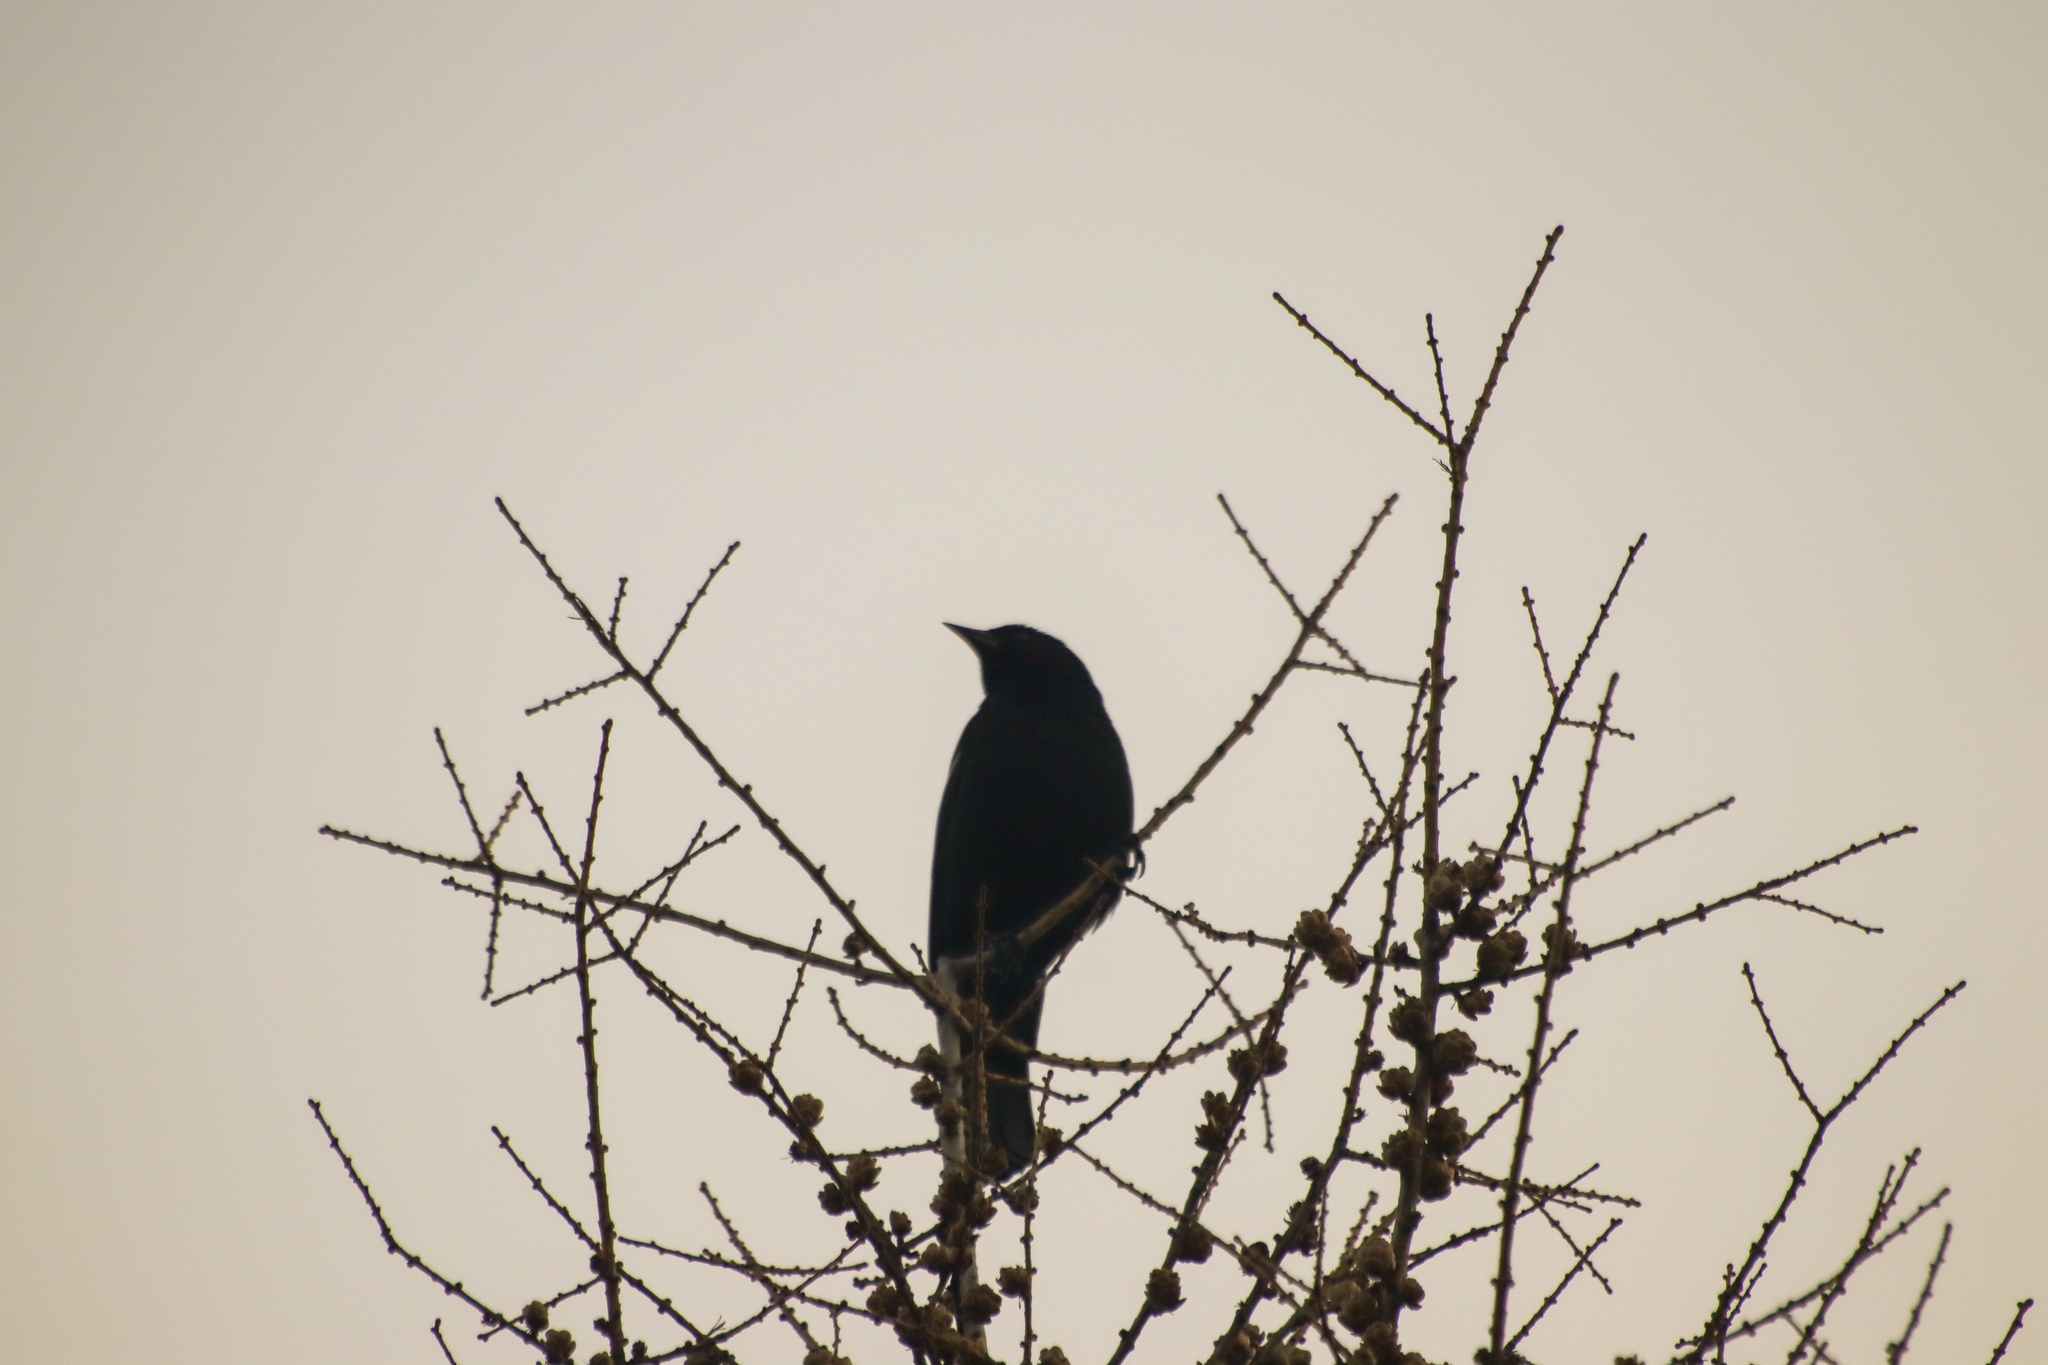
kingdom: Animalia
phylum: Chordata
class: Aves
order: Passeriformes
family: Icteridae
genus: Agelaius
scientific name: Agelaius phoeniceus
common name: Red-winged blackbird
